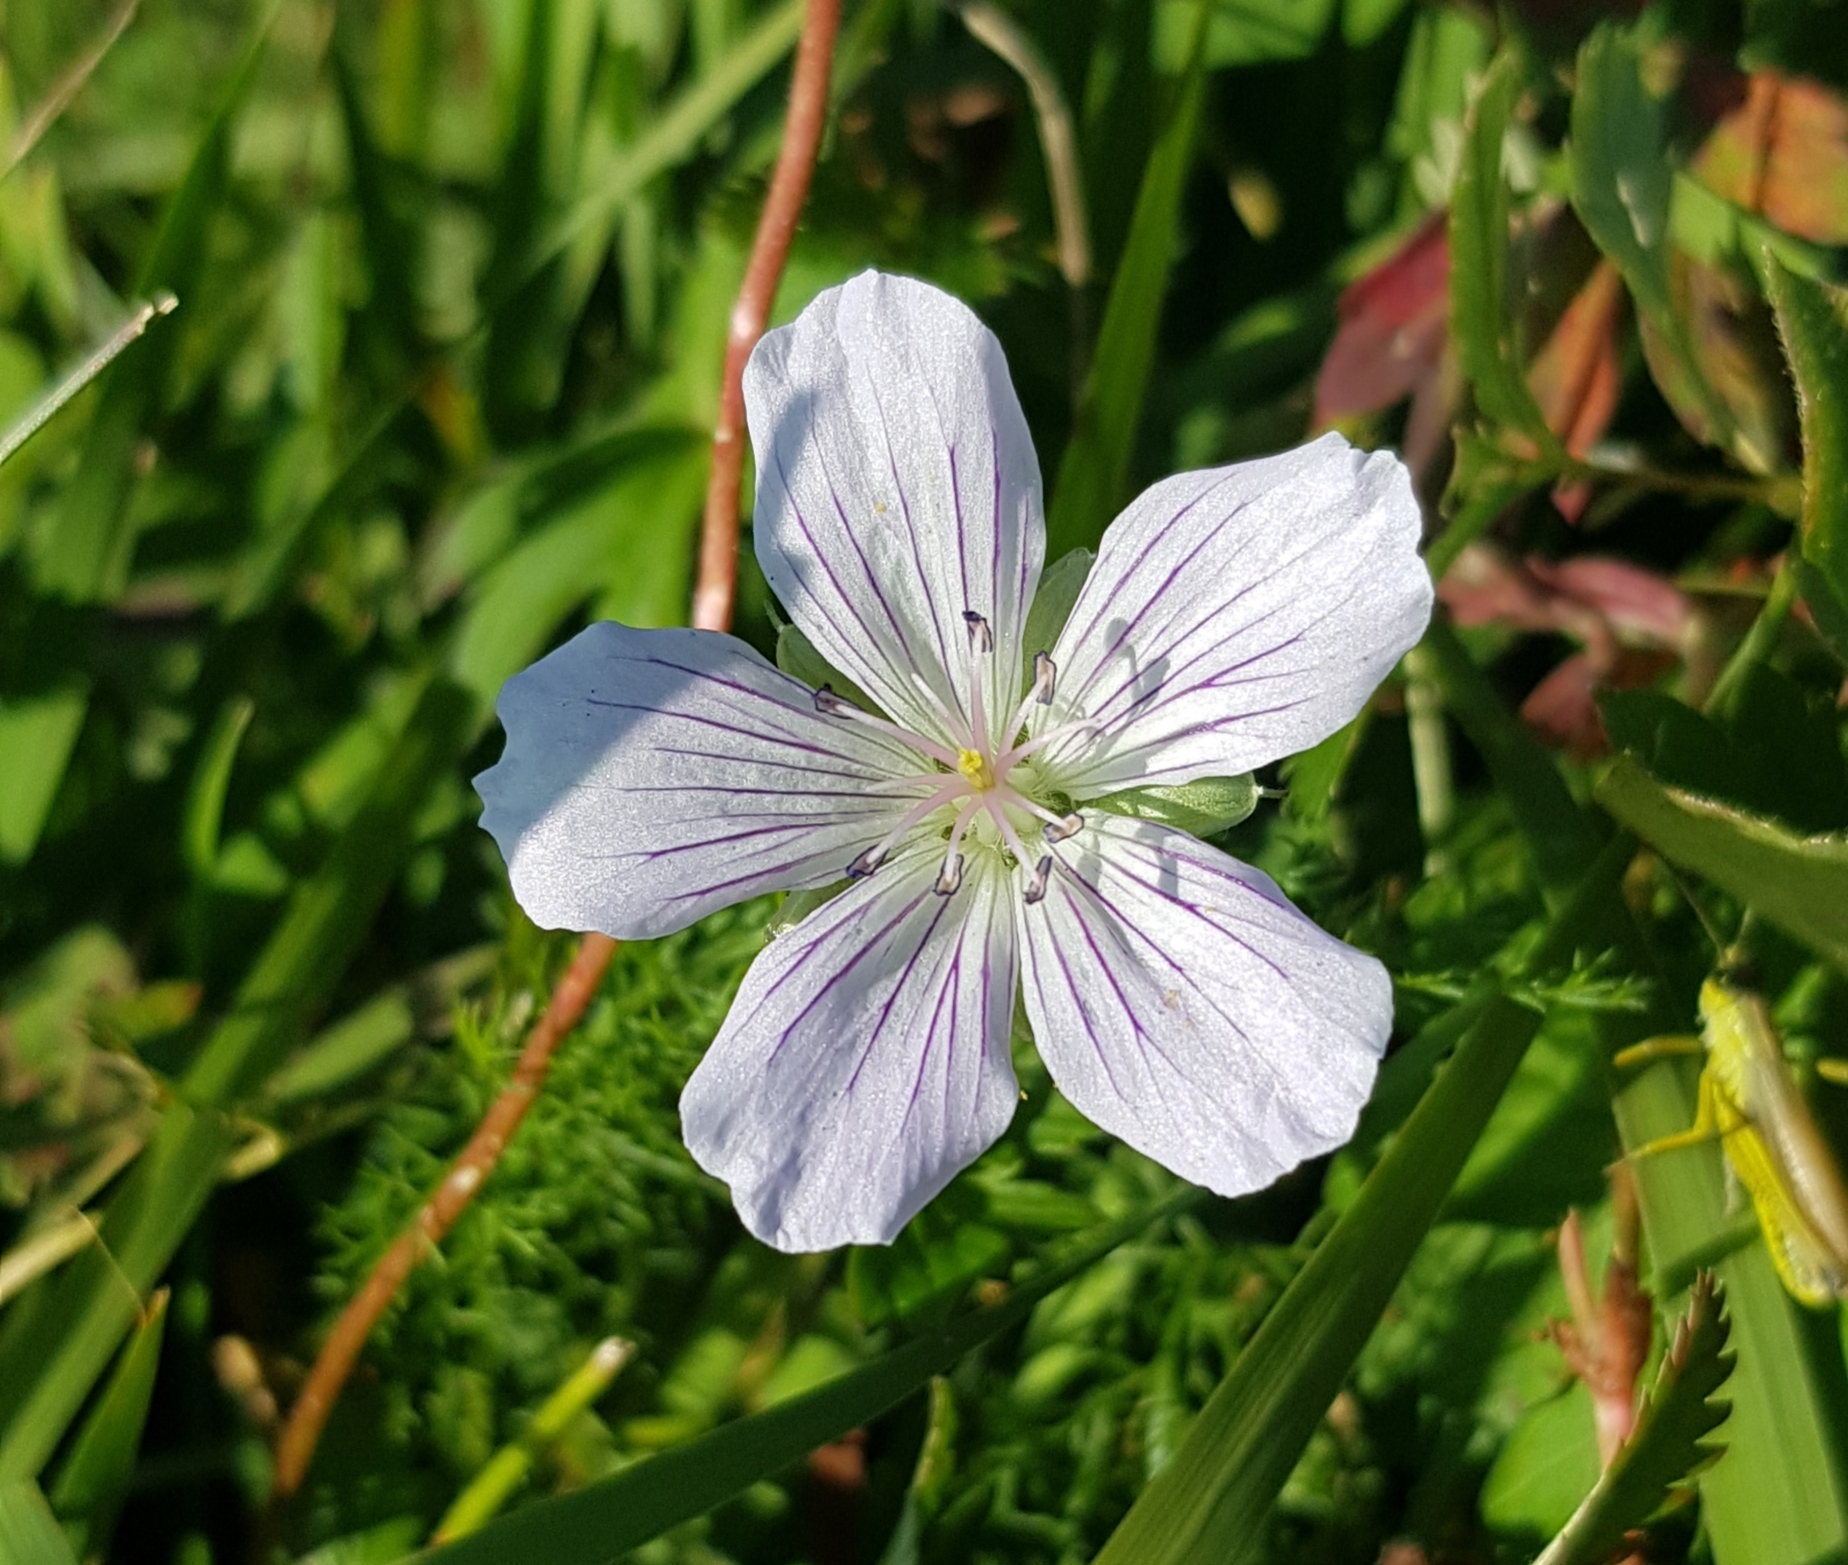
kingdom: Plantae
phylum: Tracheophyta
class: Magnoliopsida
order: Geraniales
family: Geraniaceae
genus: Geranium
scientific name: Geranium wlassovianum
